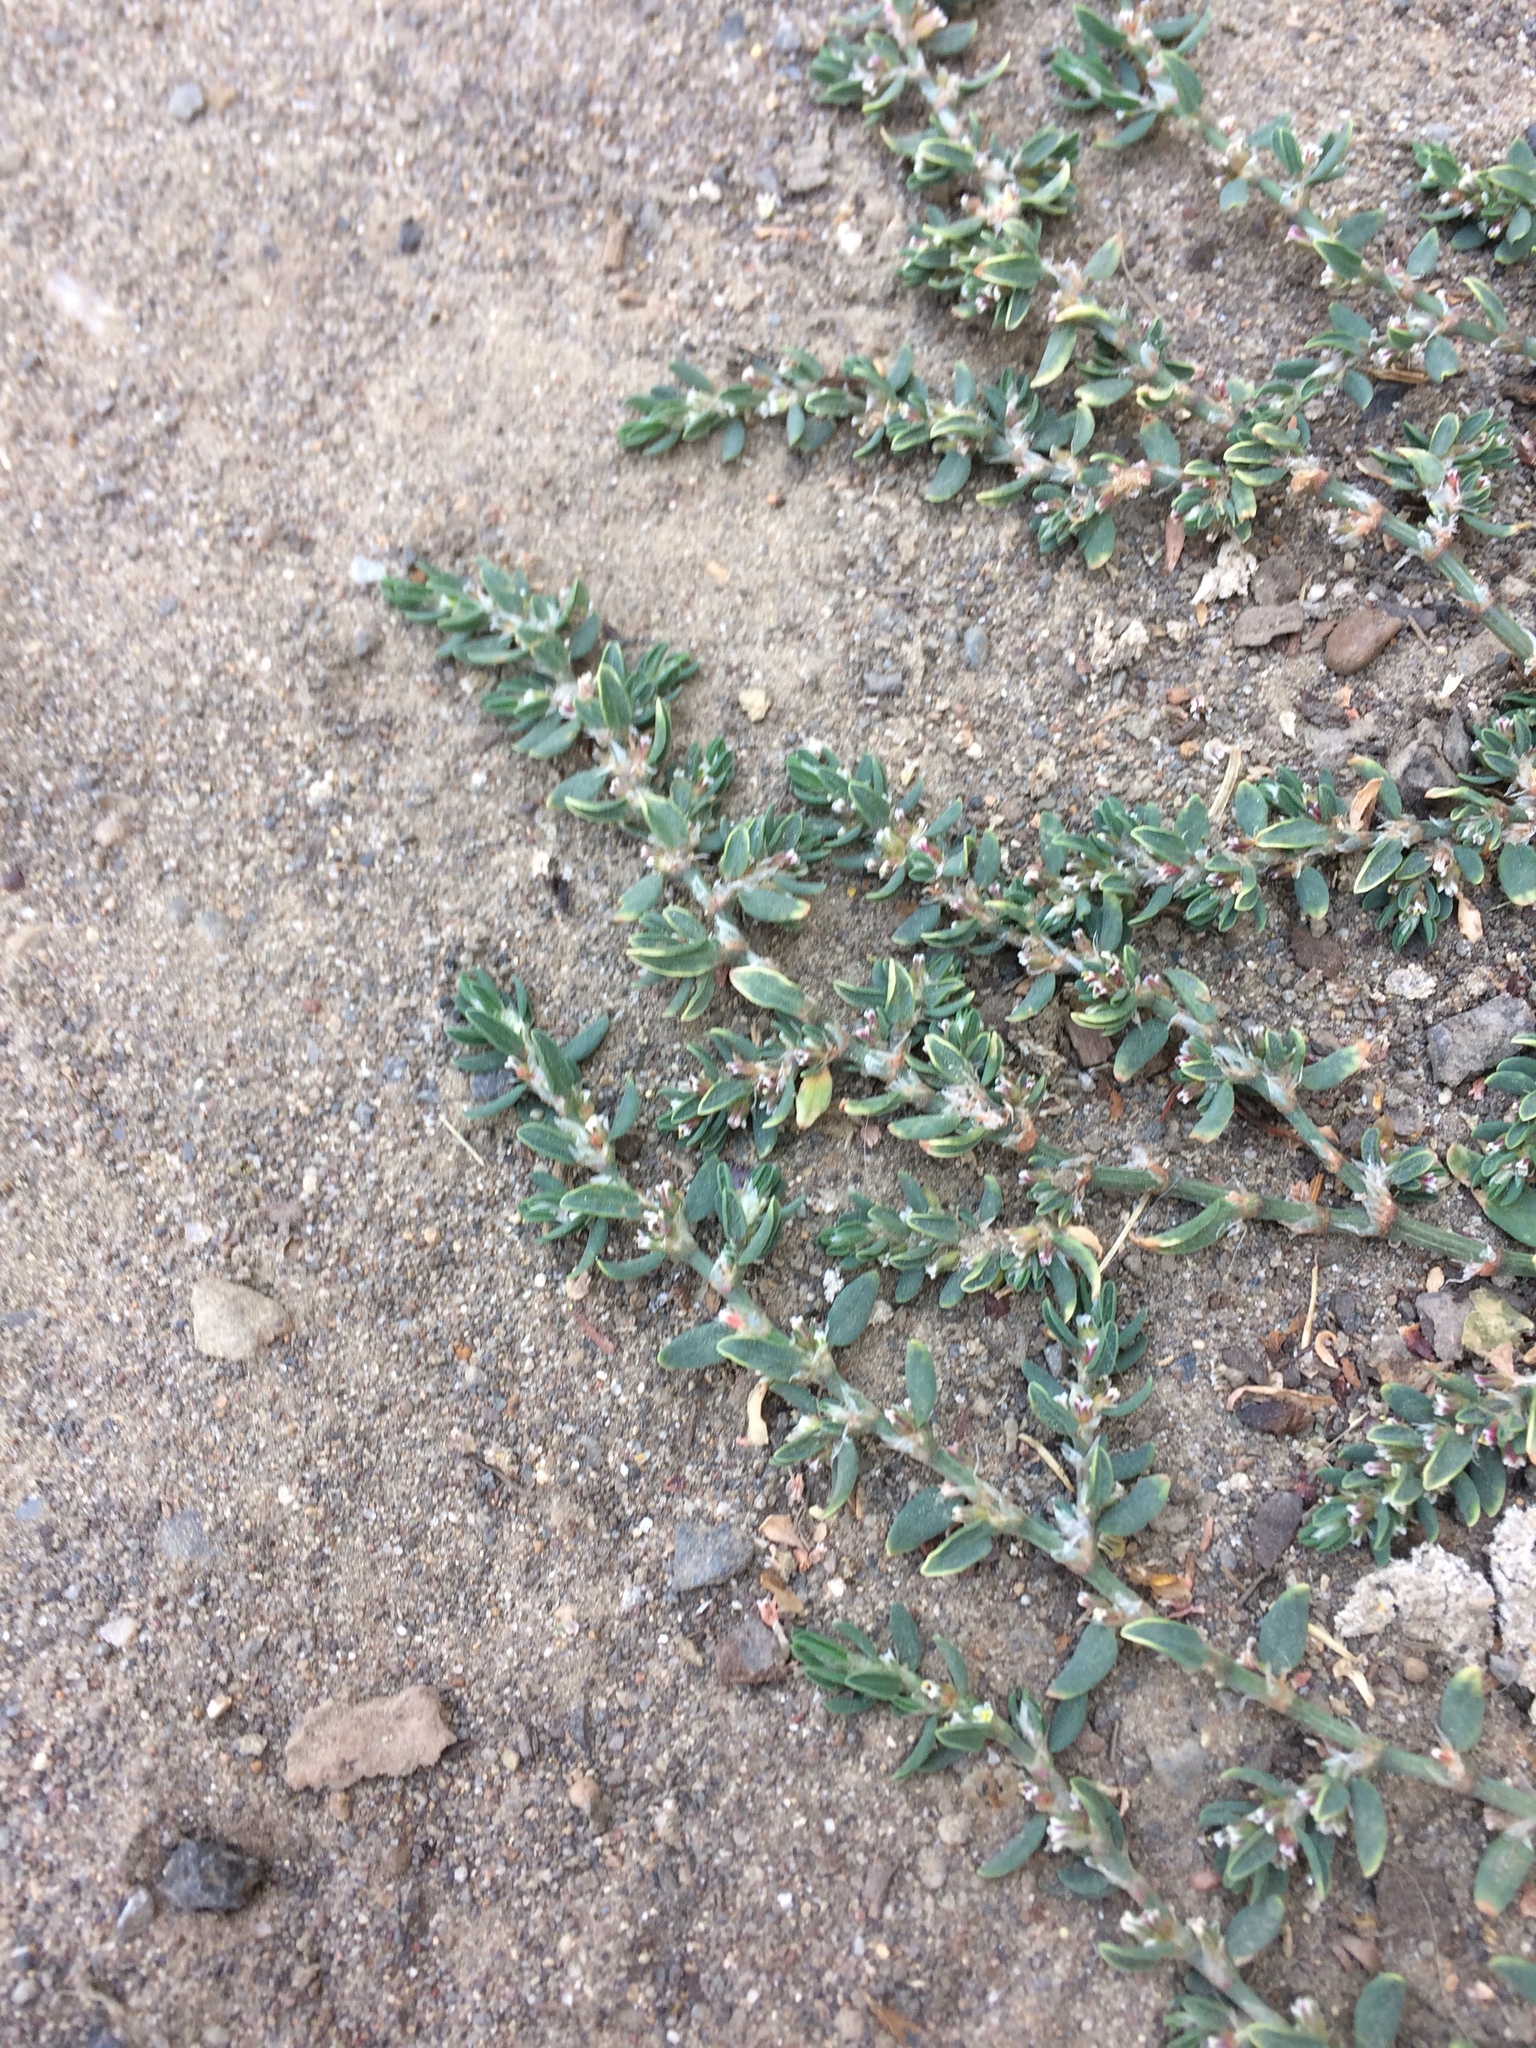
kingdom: Plantae
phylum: Tracheophyta
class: Magnoliopsida
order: Caryophyllales
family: Polygonaceae
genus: Polygonum
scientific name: Polygonum aviculare
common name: Prostrate knotweed
